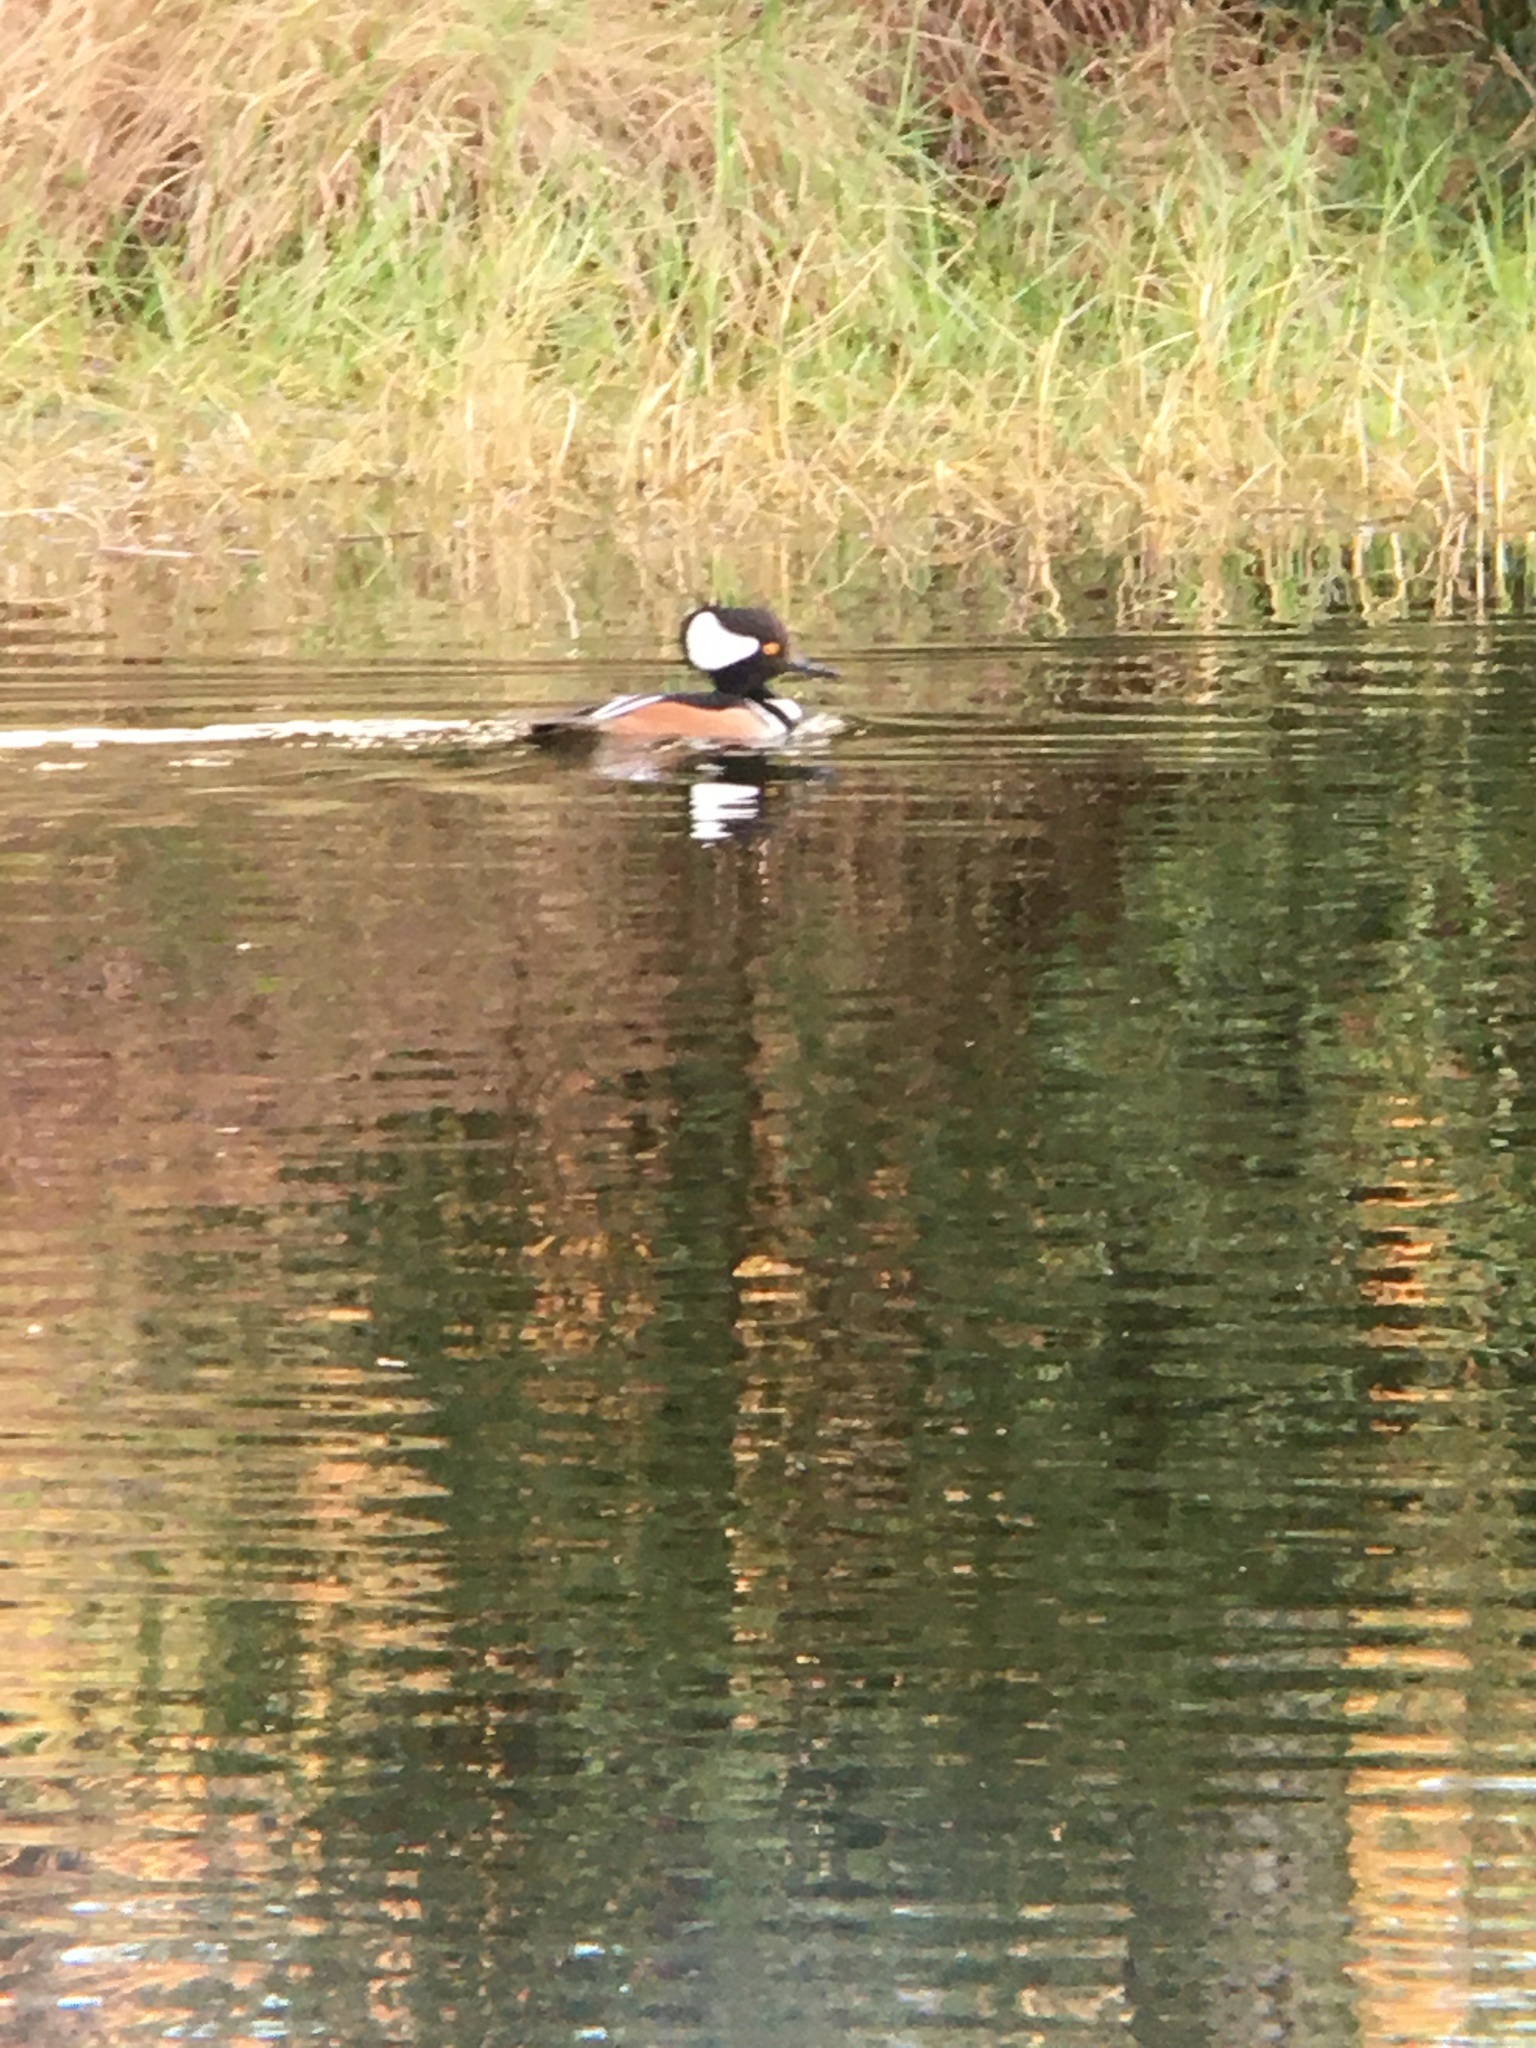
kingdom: Animalia
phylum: Chordata
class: Aves
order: Anseriformes
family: Anatidae
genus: Lophodytes
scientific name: Lophodytes cucullatus
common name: Hooded merganser
